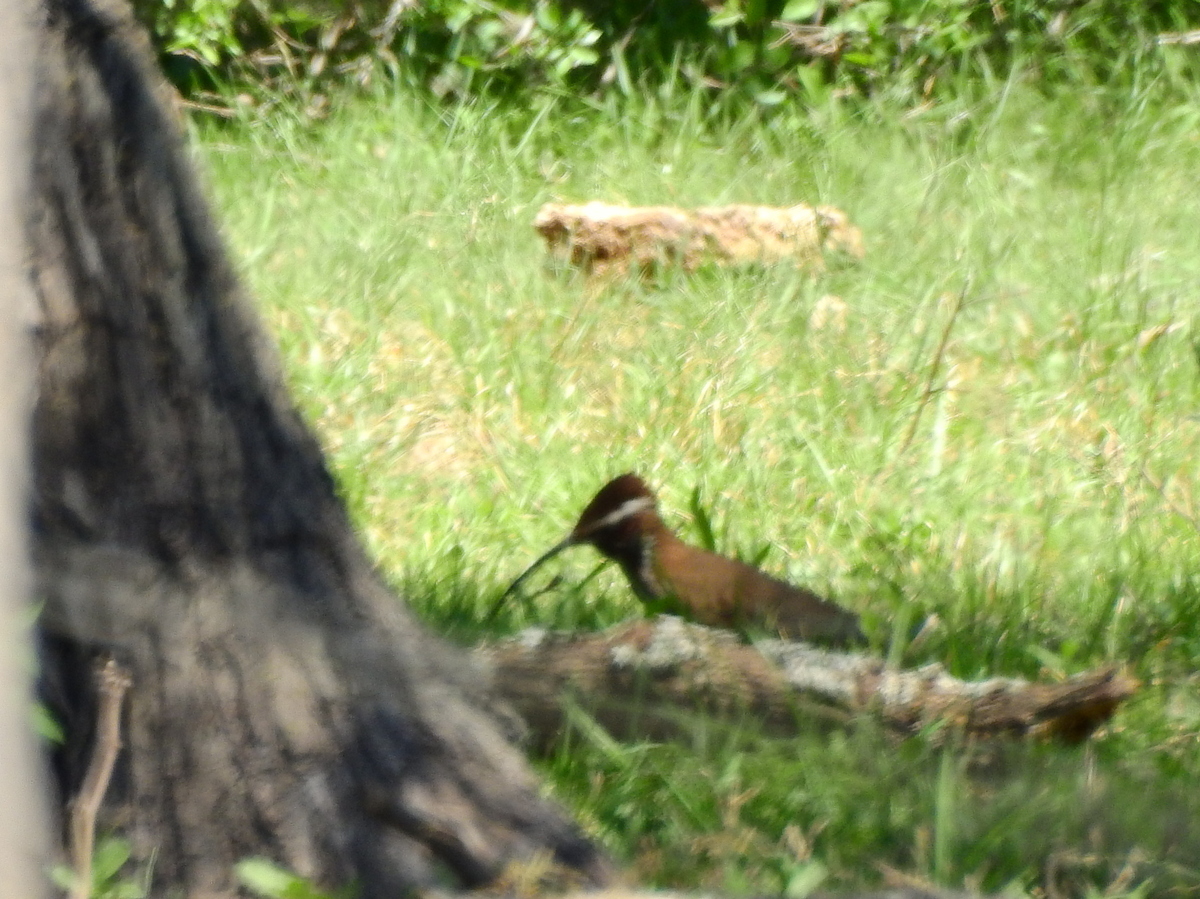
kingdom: Animalia
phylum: Chordata
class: Aves
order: Passeriformes
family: Furnariidae
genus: Drymornis
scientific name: Drymornis bridgesii
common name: Scimitar-billed woodcreeper
